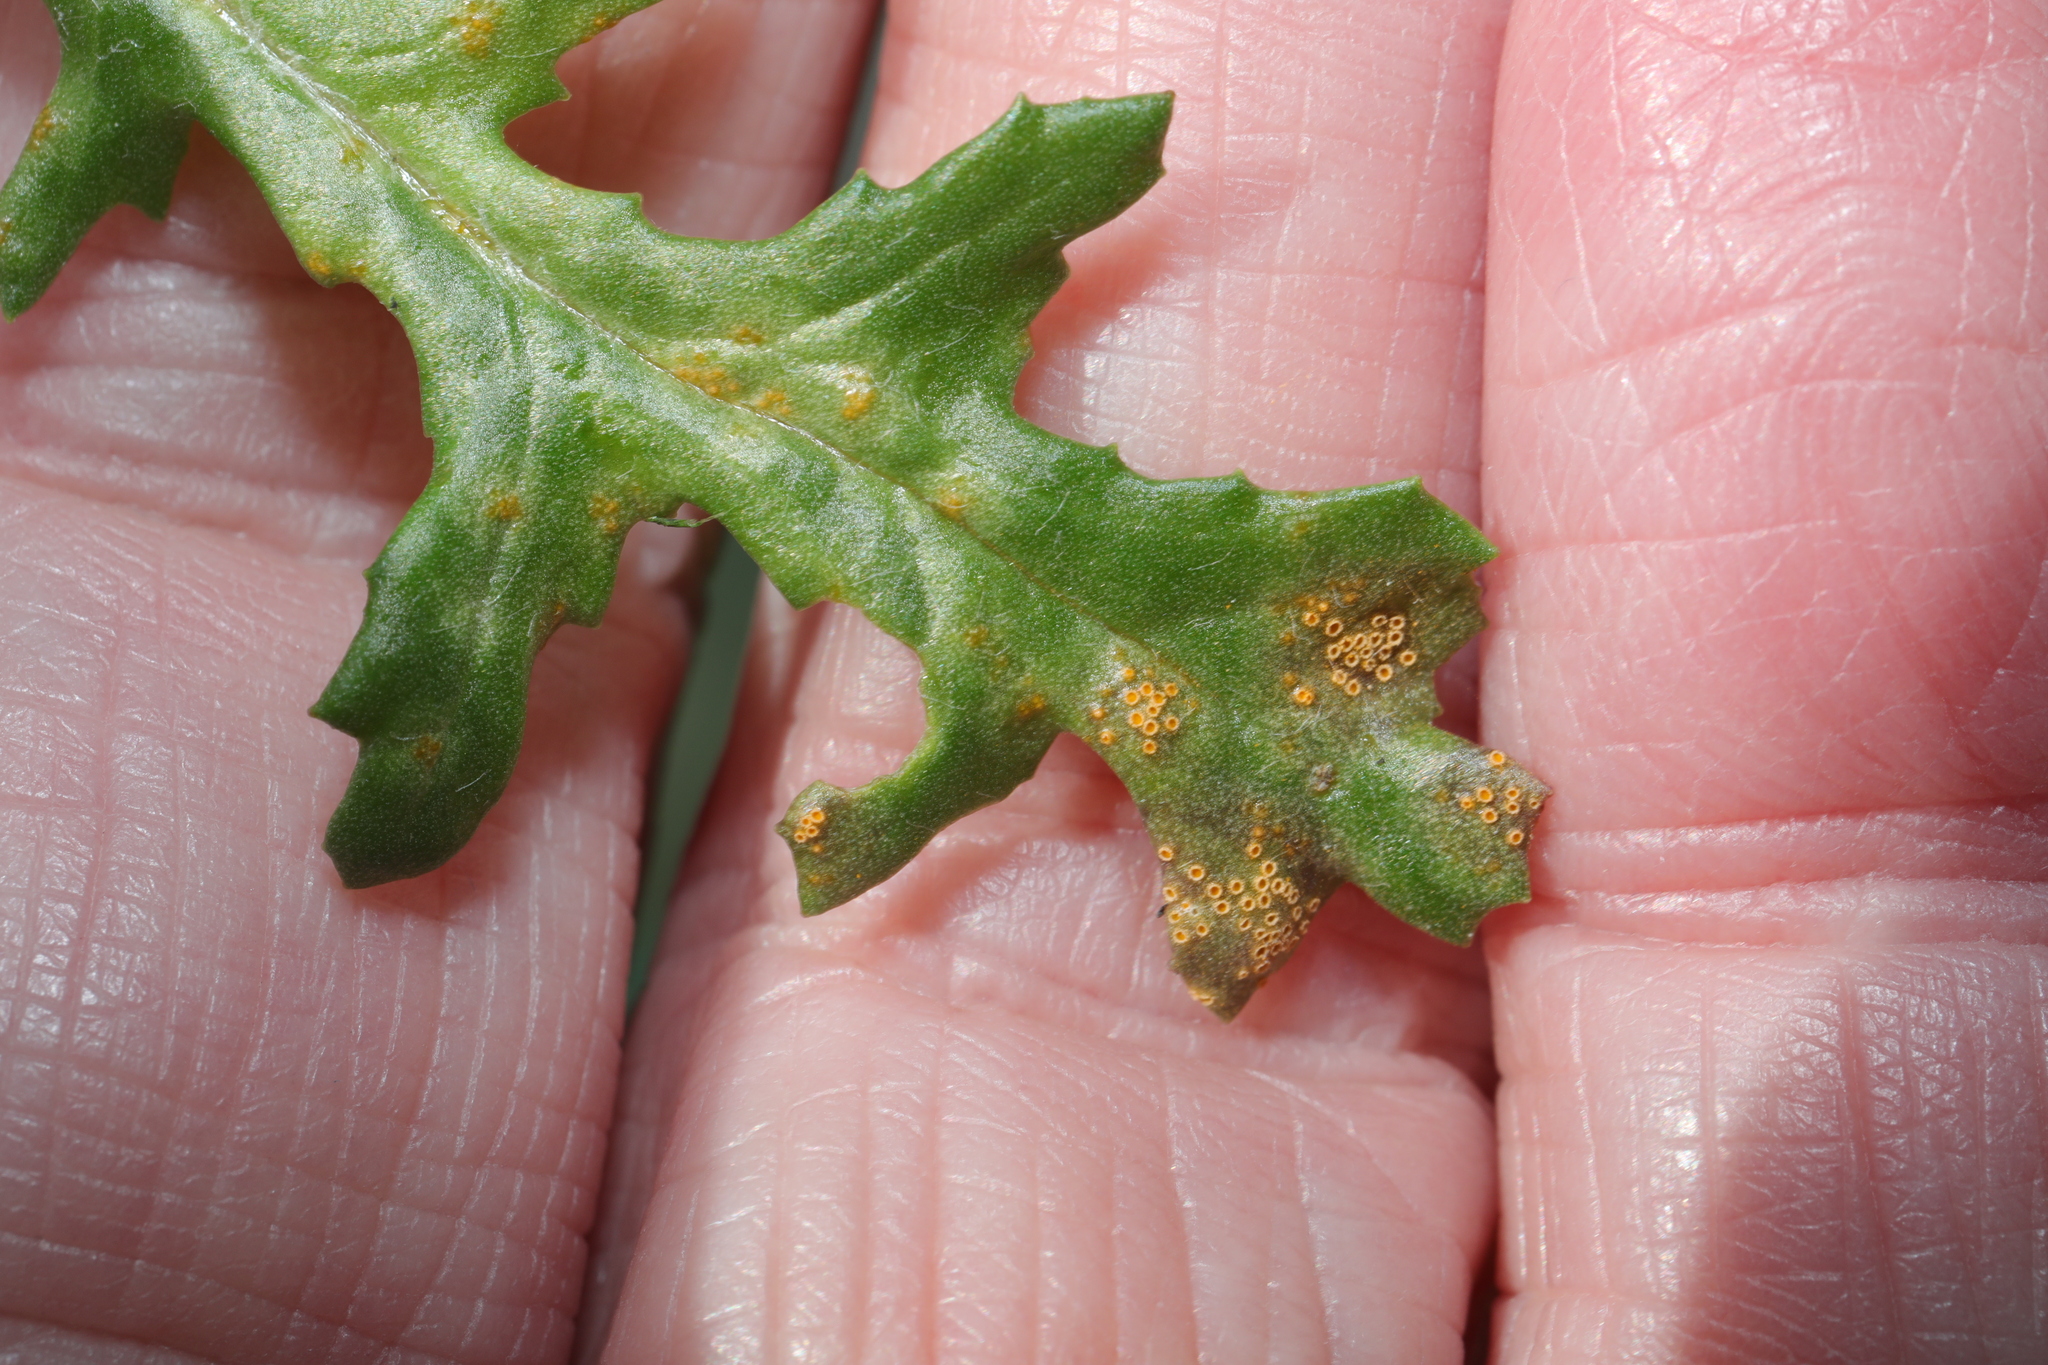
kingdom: Fungi
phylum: Basidiomycota
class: Pucciniomycetes
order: Pucciniales
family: Pucciniaceae
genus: Puccinia
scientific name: Puccinia lagenophorae
